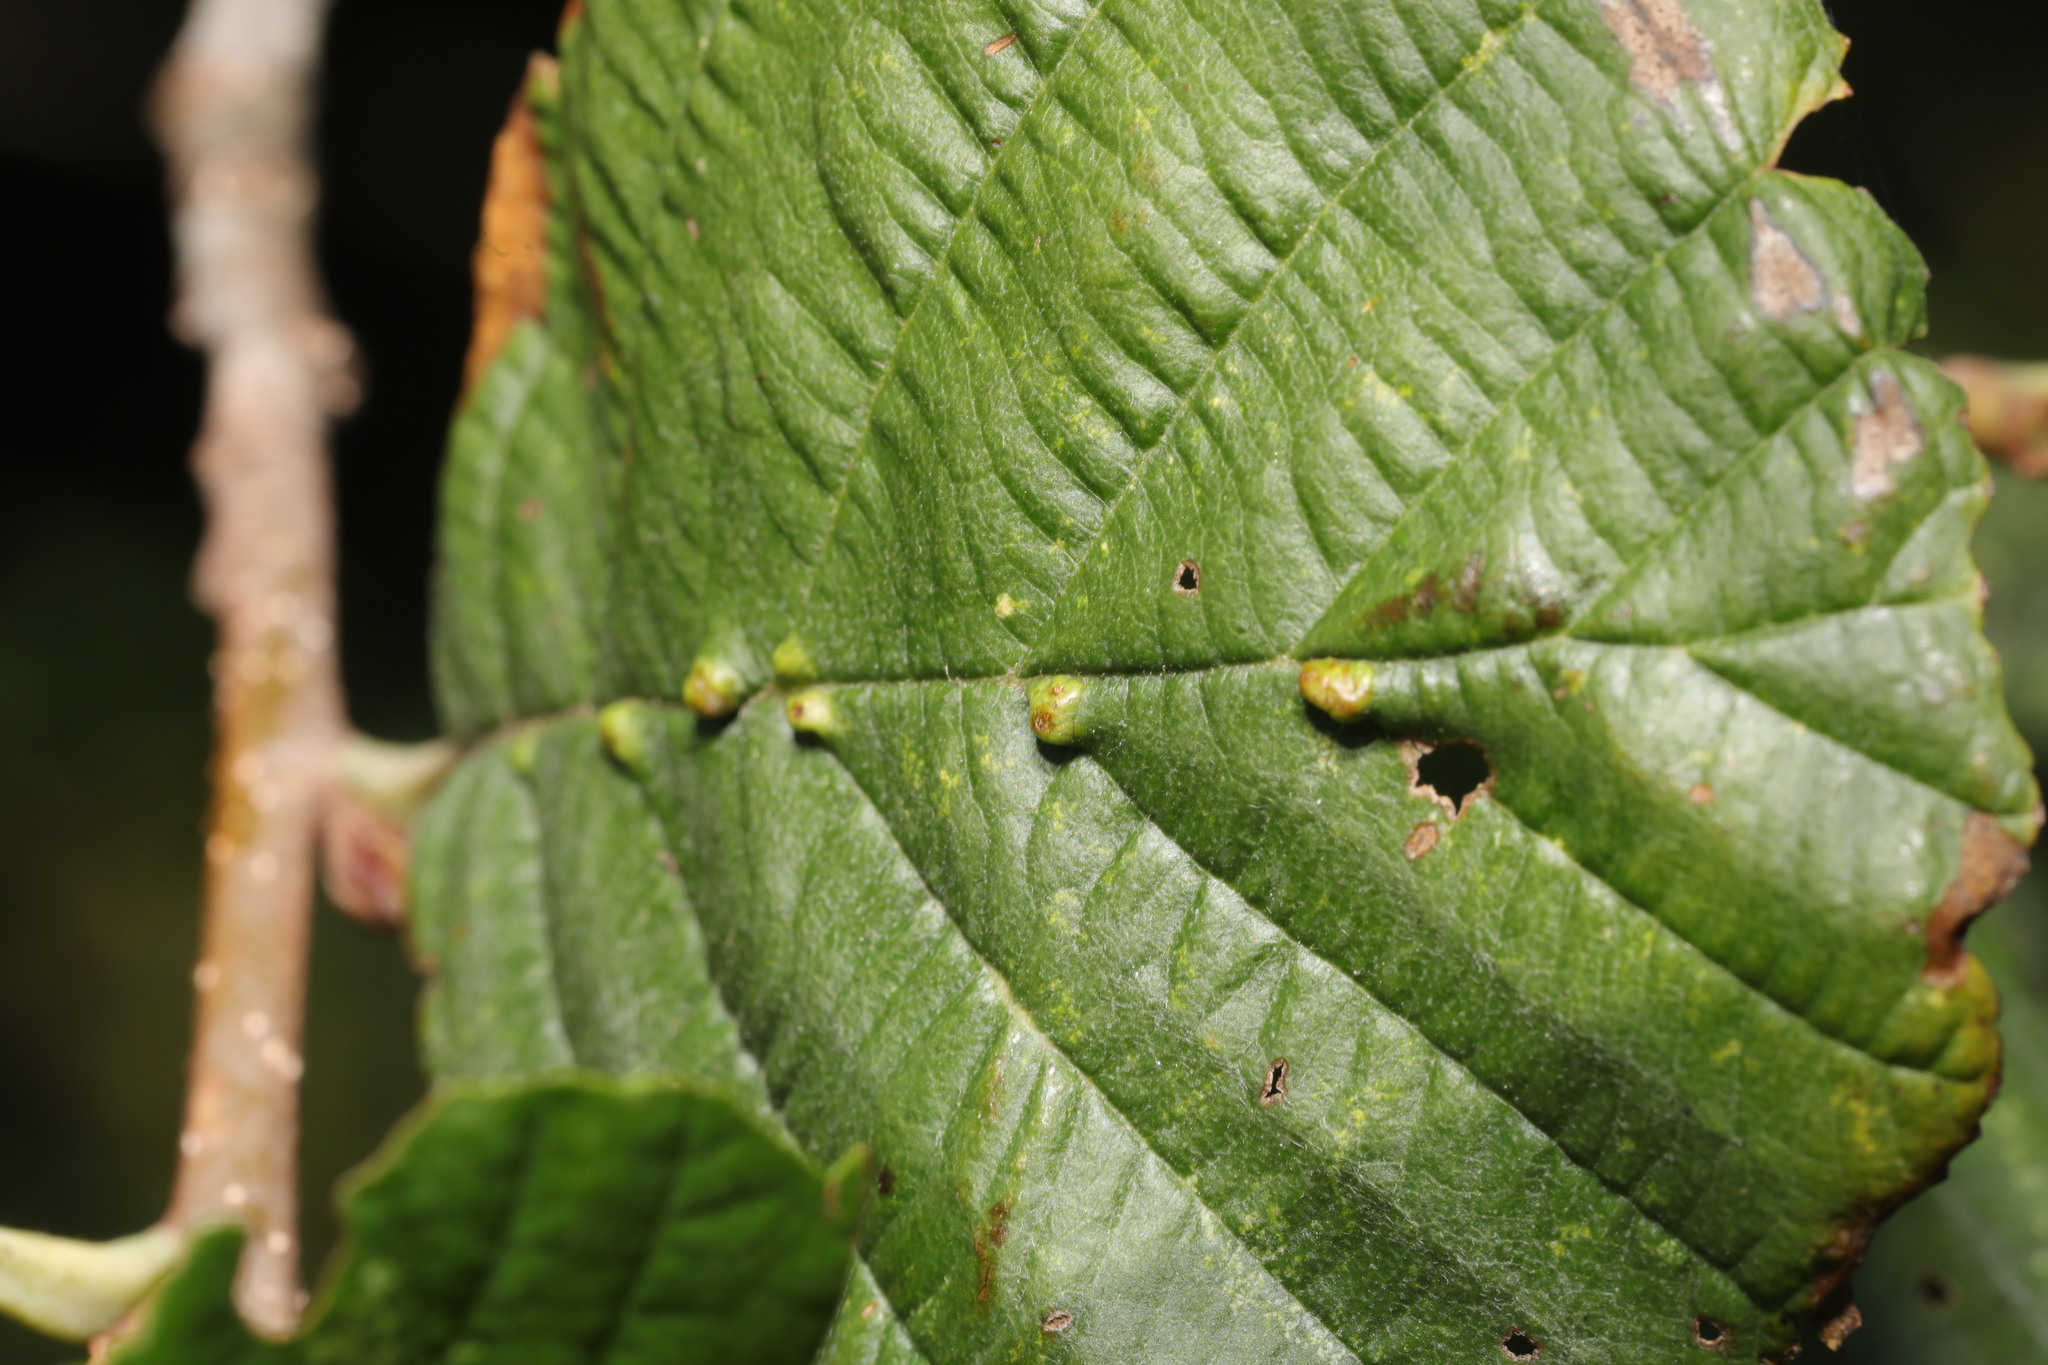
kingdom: Animalia
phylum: Arthropoda
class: Arachnida
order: Trombidiformes
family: Eriophyidae
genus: Aceria
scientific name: Aceria nalepai
